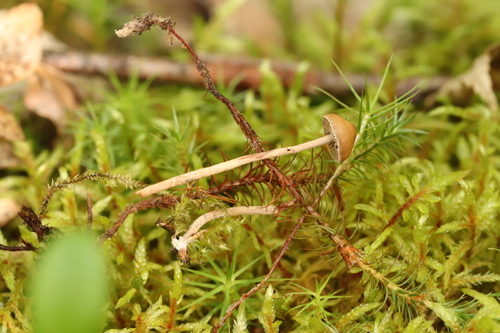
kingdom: Fungi
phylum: Basidiomycota
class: Agaricomycetes
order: Agaricales
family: Strophariaceae
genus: Deconica
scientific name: Deconica phyllogena
